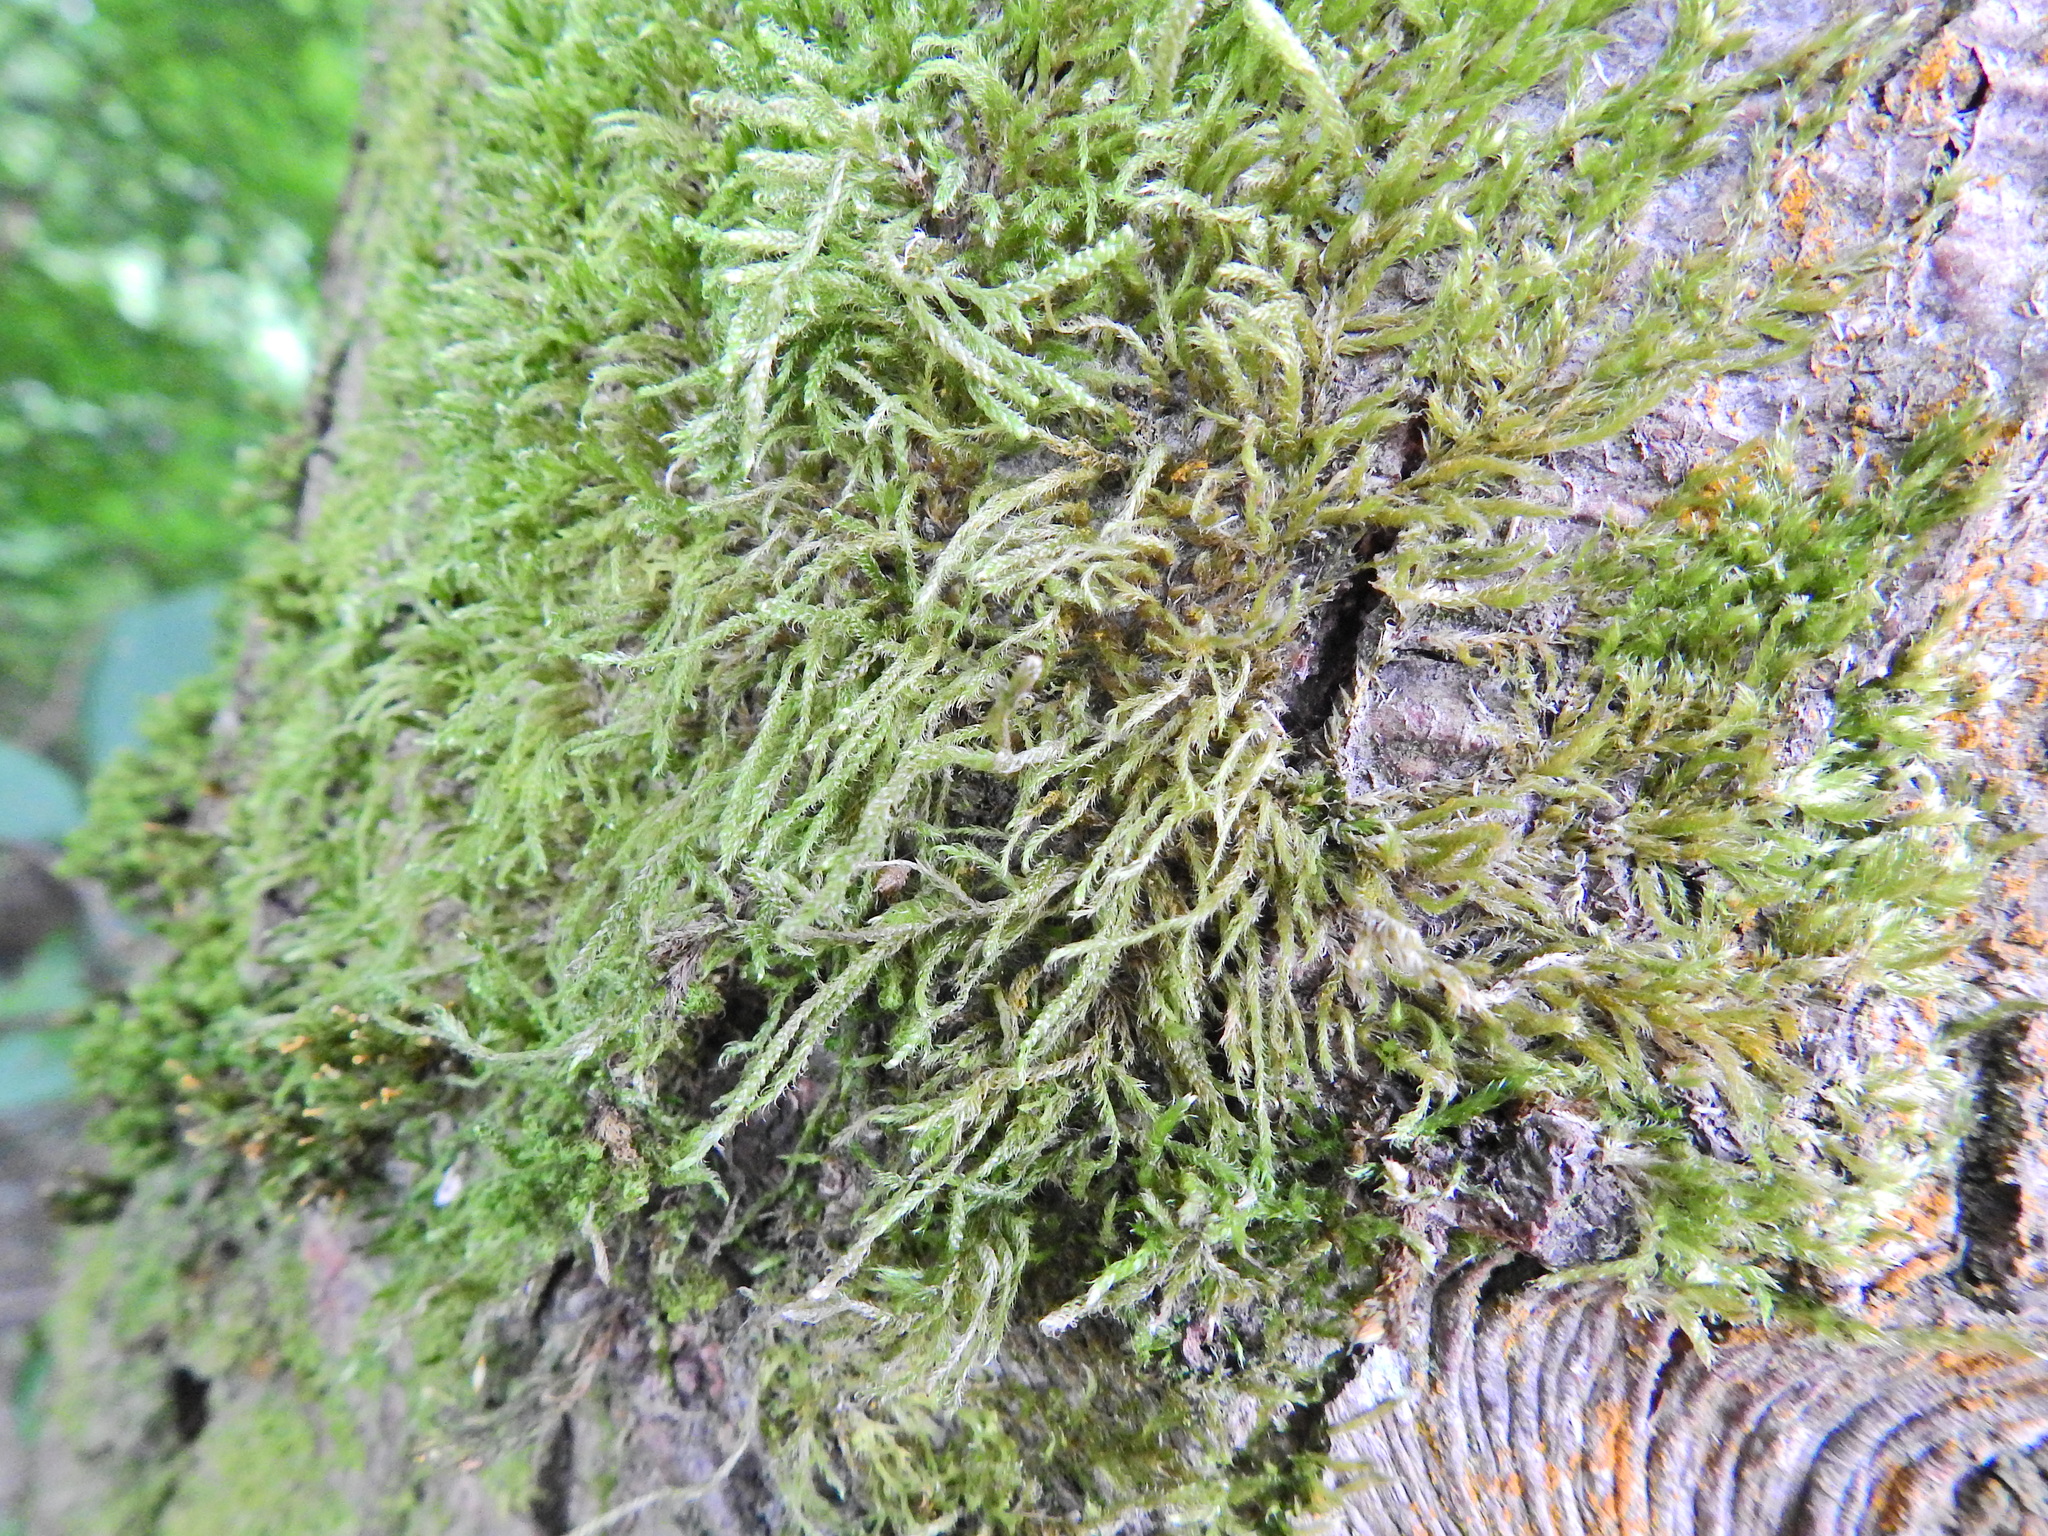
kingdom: Plantae
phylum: Bryophyta
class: Bryopsida
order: Hypnales
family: Hypnaceae
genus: Hypnum
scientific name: Hypnum cupressiforme
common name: Cypress-leaved plait-moss
